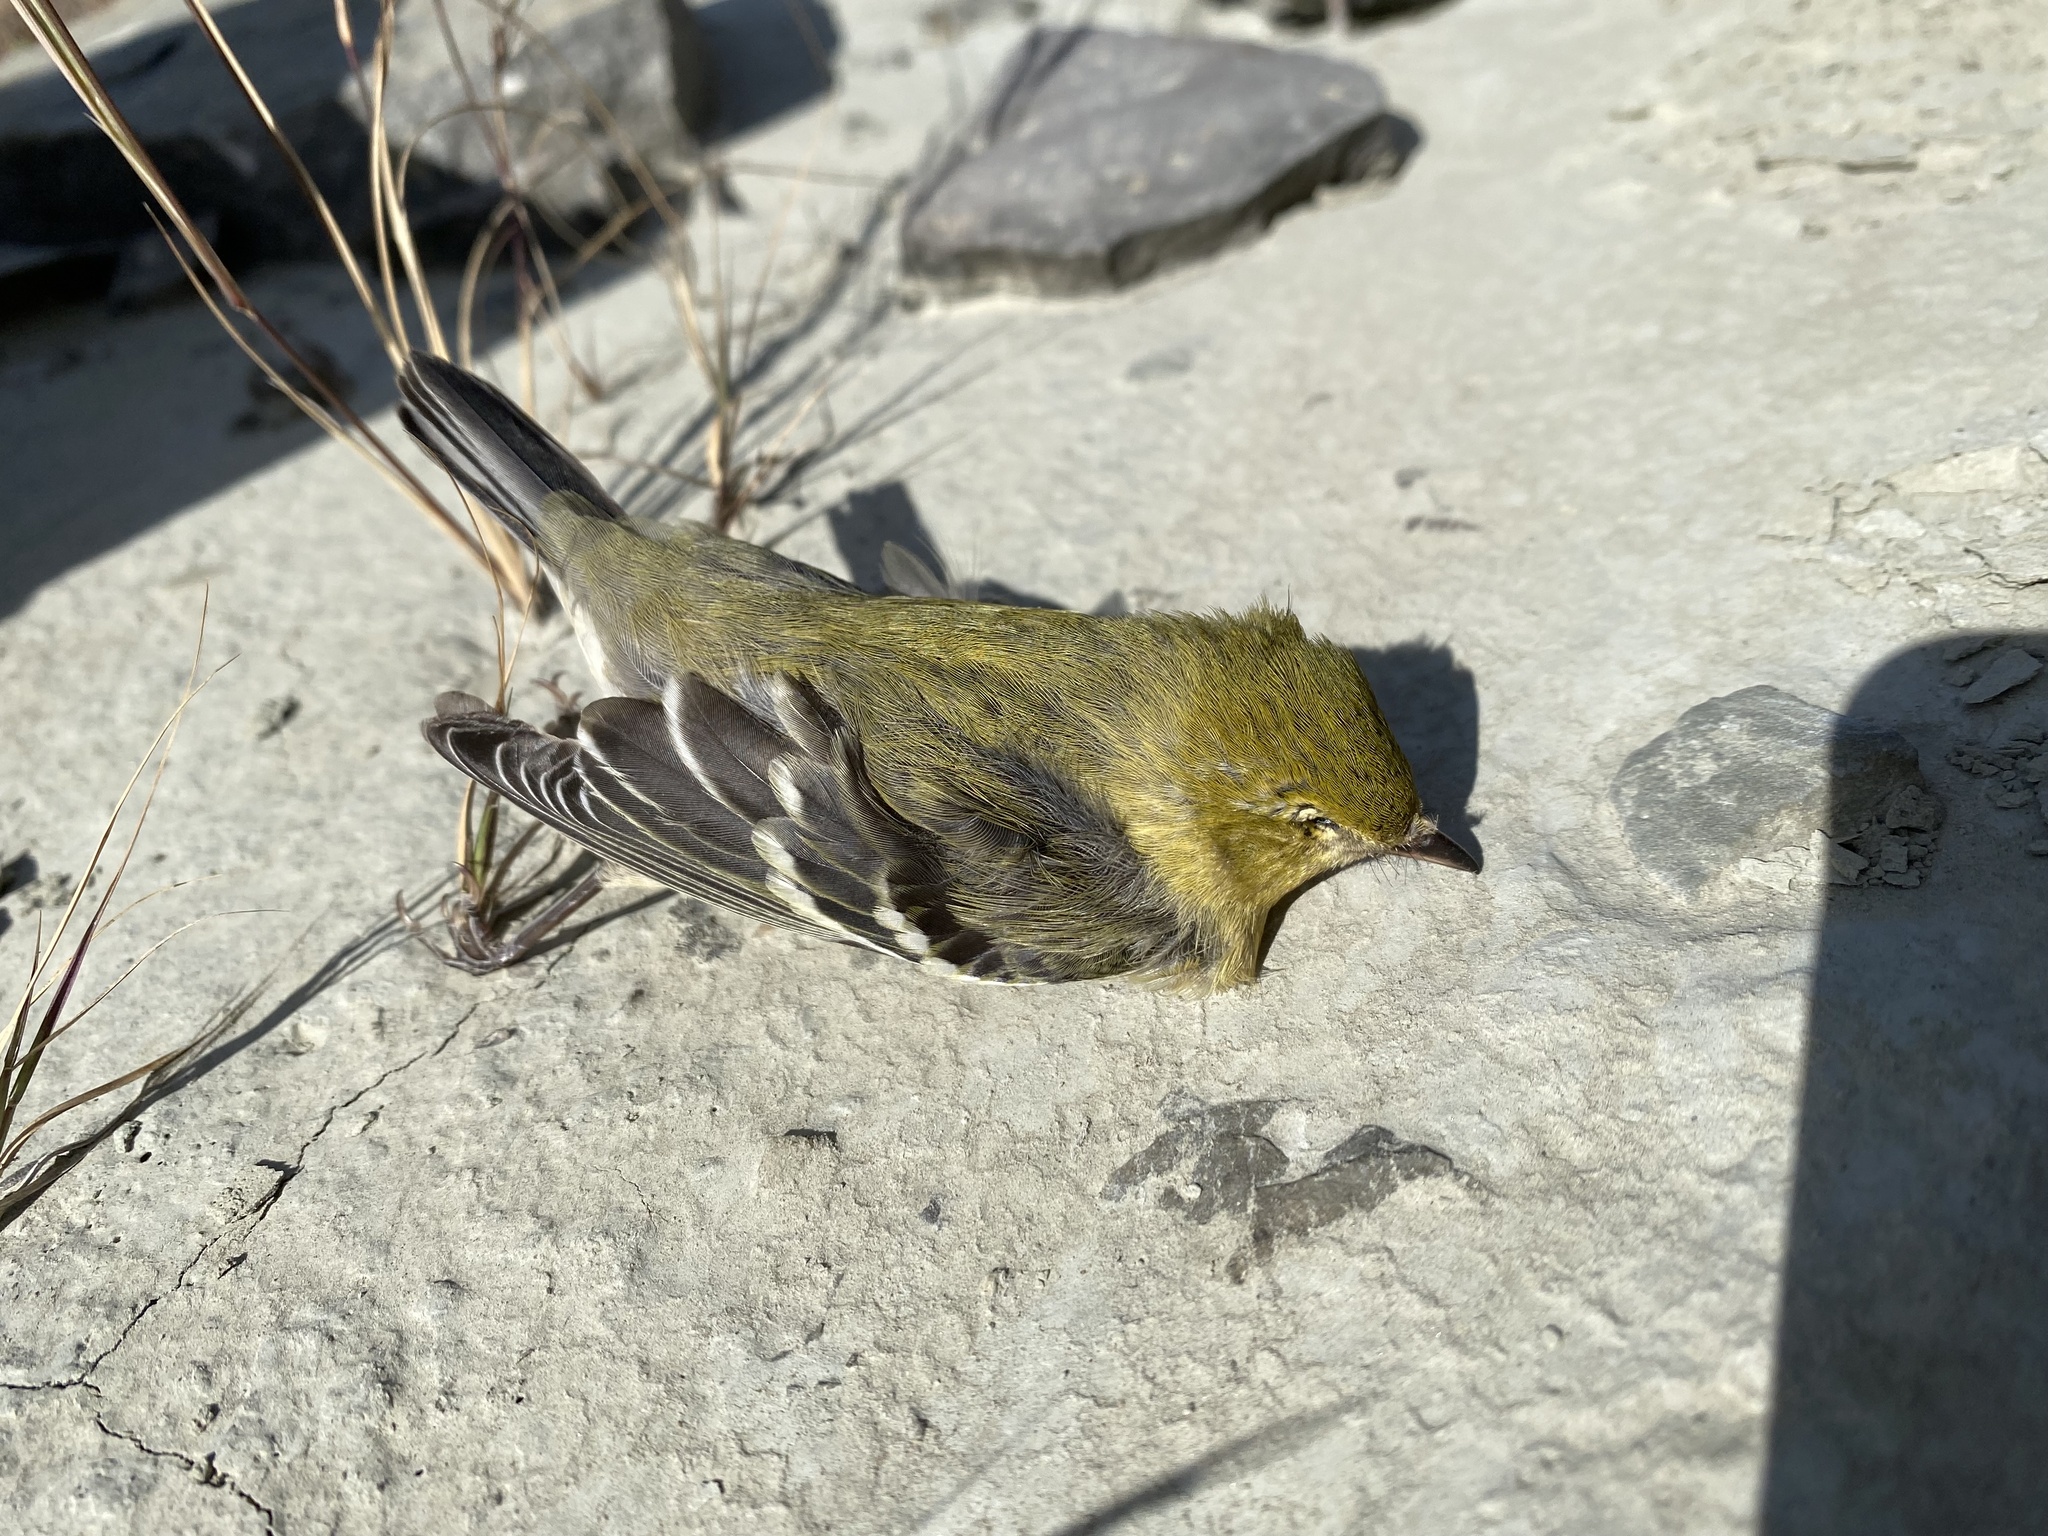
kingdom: Animalia
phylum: Chordata
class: Aves
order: Passeriformes
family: Parulidae
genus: Setophaga
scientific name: Setophaga pinus
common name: Pine warbler
